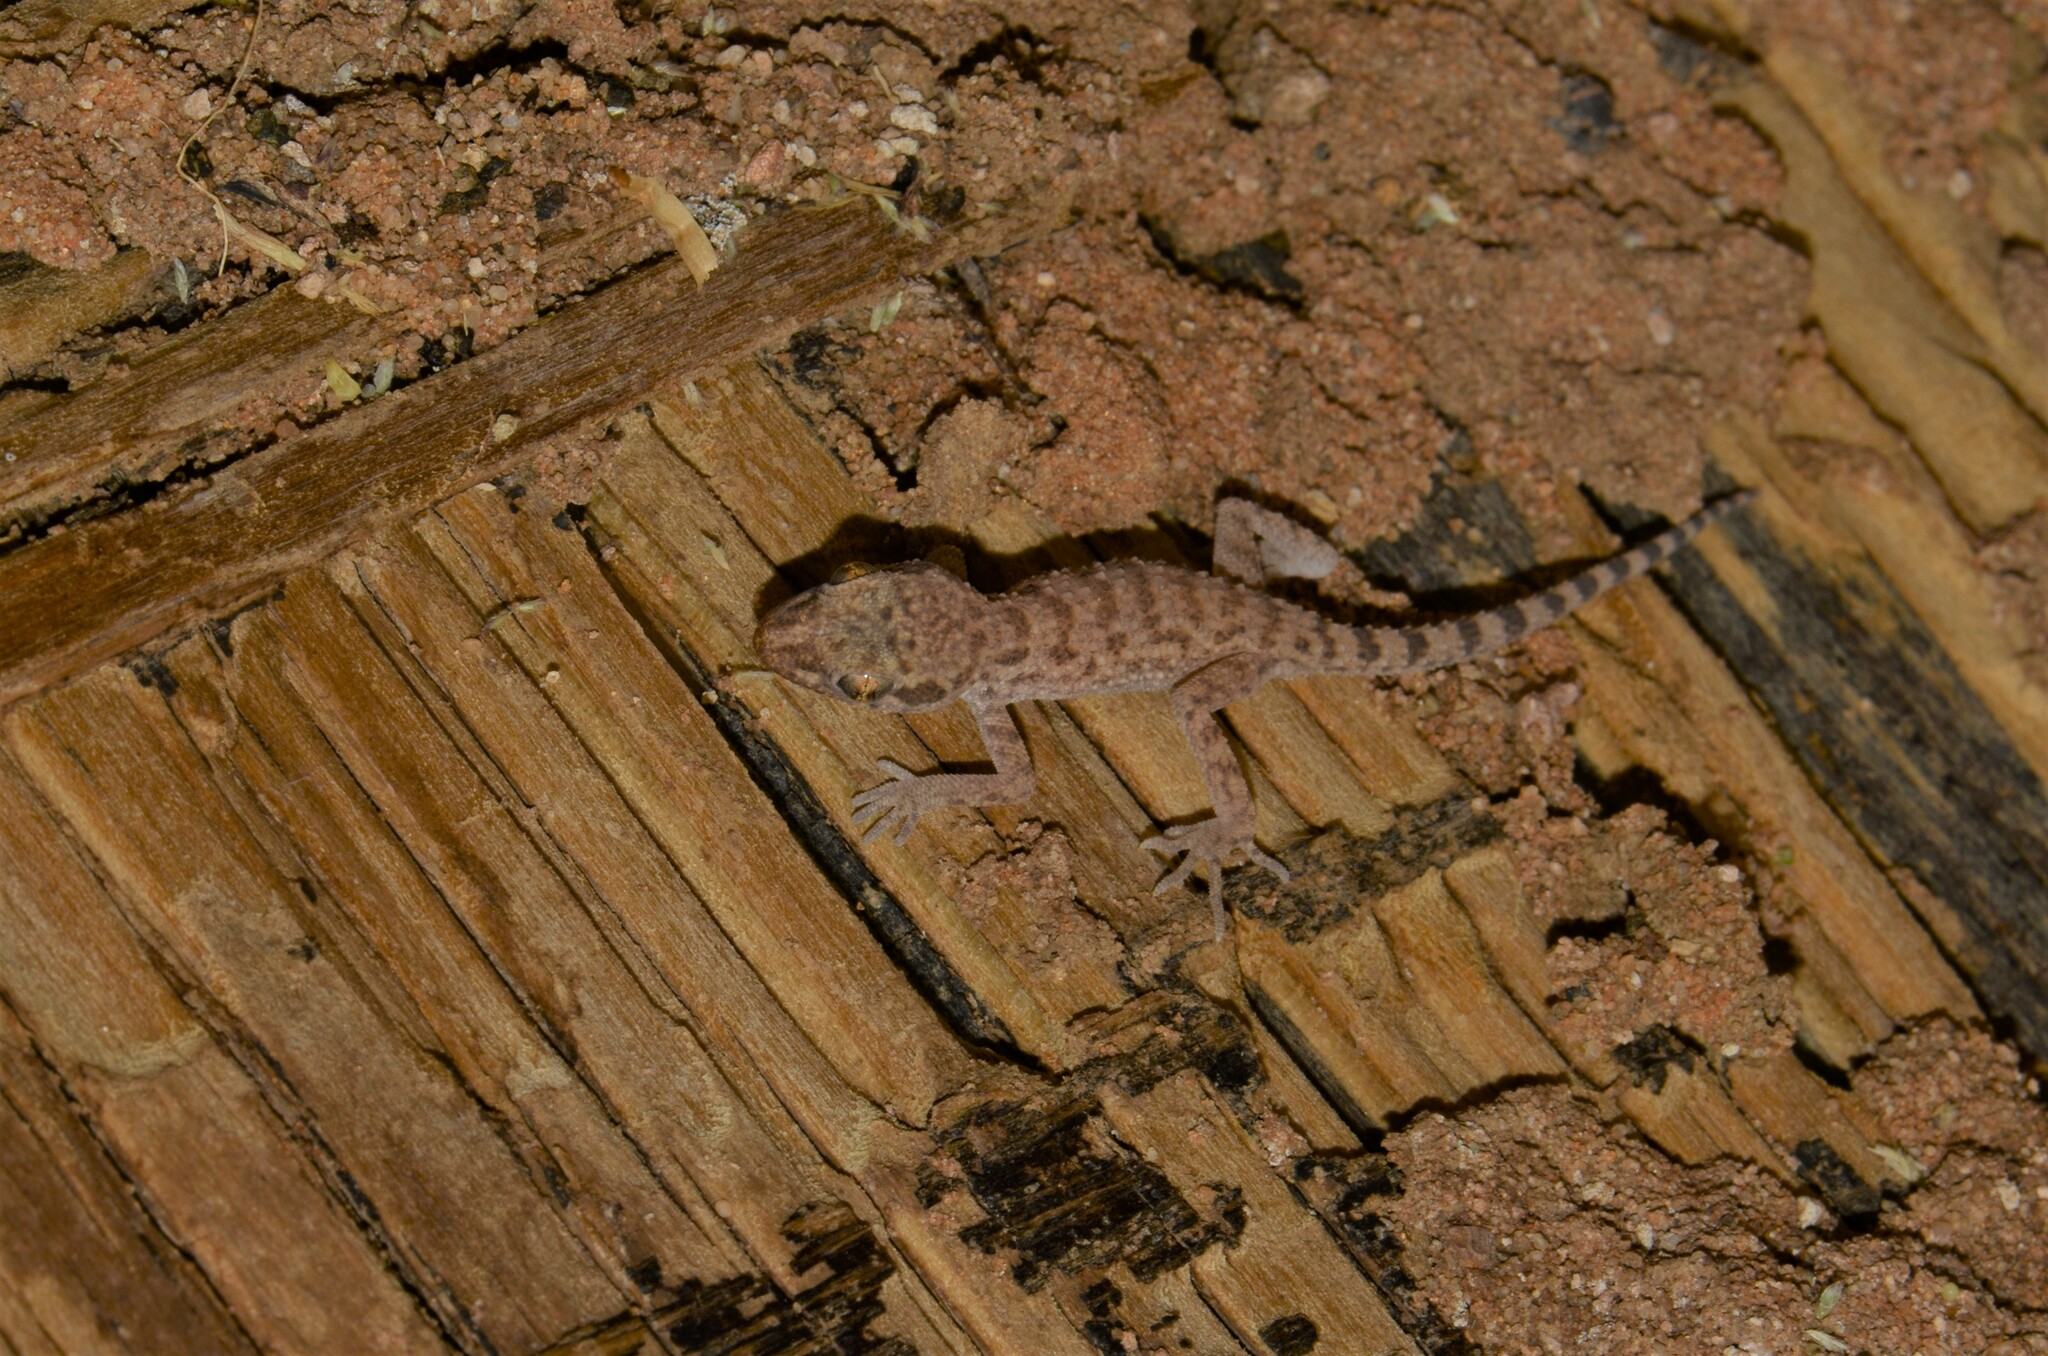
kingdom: Animalia
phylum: Chordata
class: Squamata
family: Gekkonidae
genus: Bunopus
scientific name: Bunopus tuberculatus
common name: Southern tuberculated gecko
